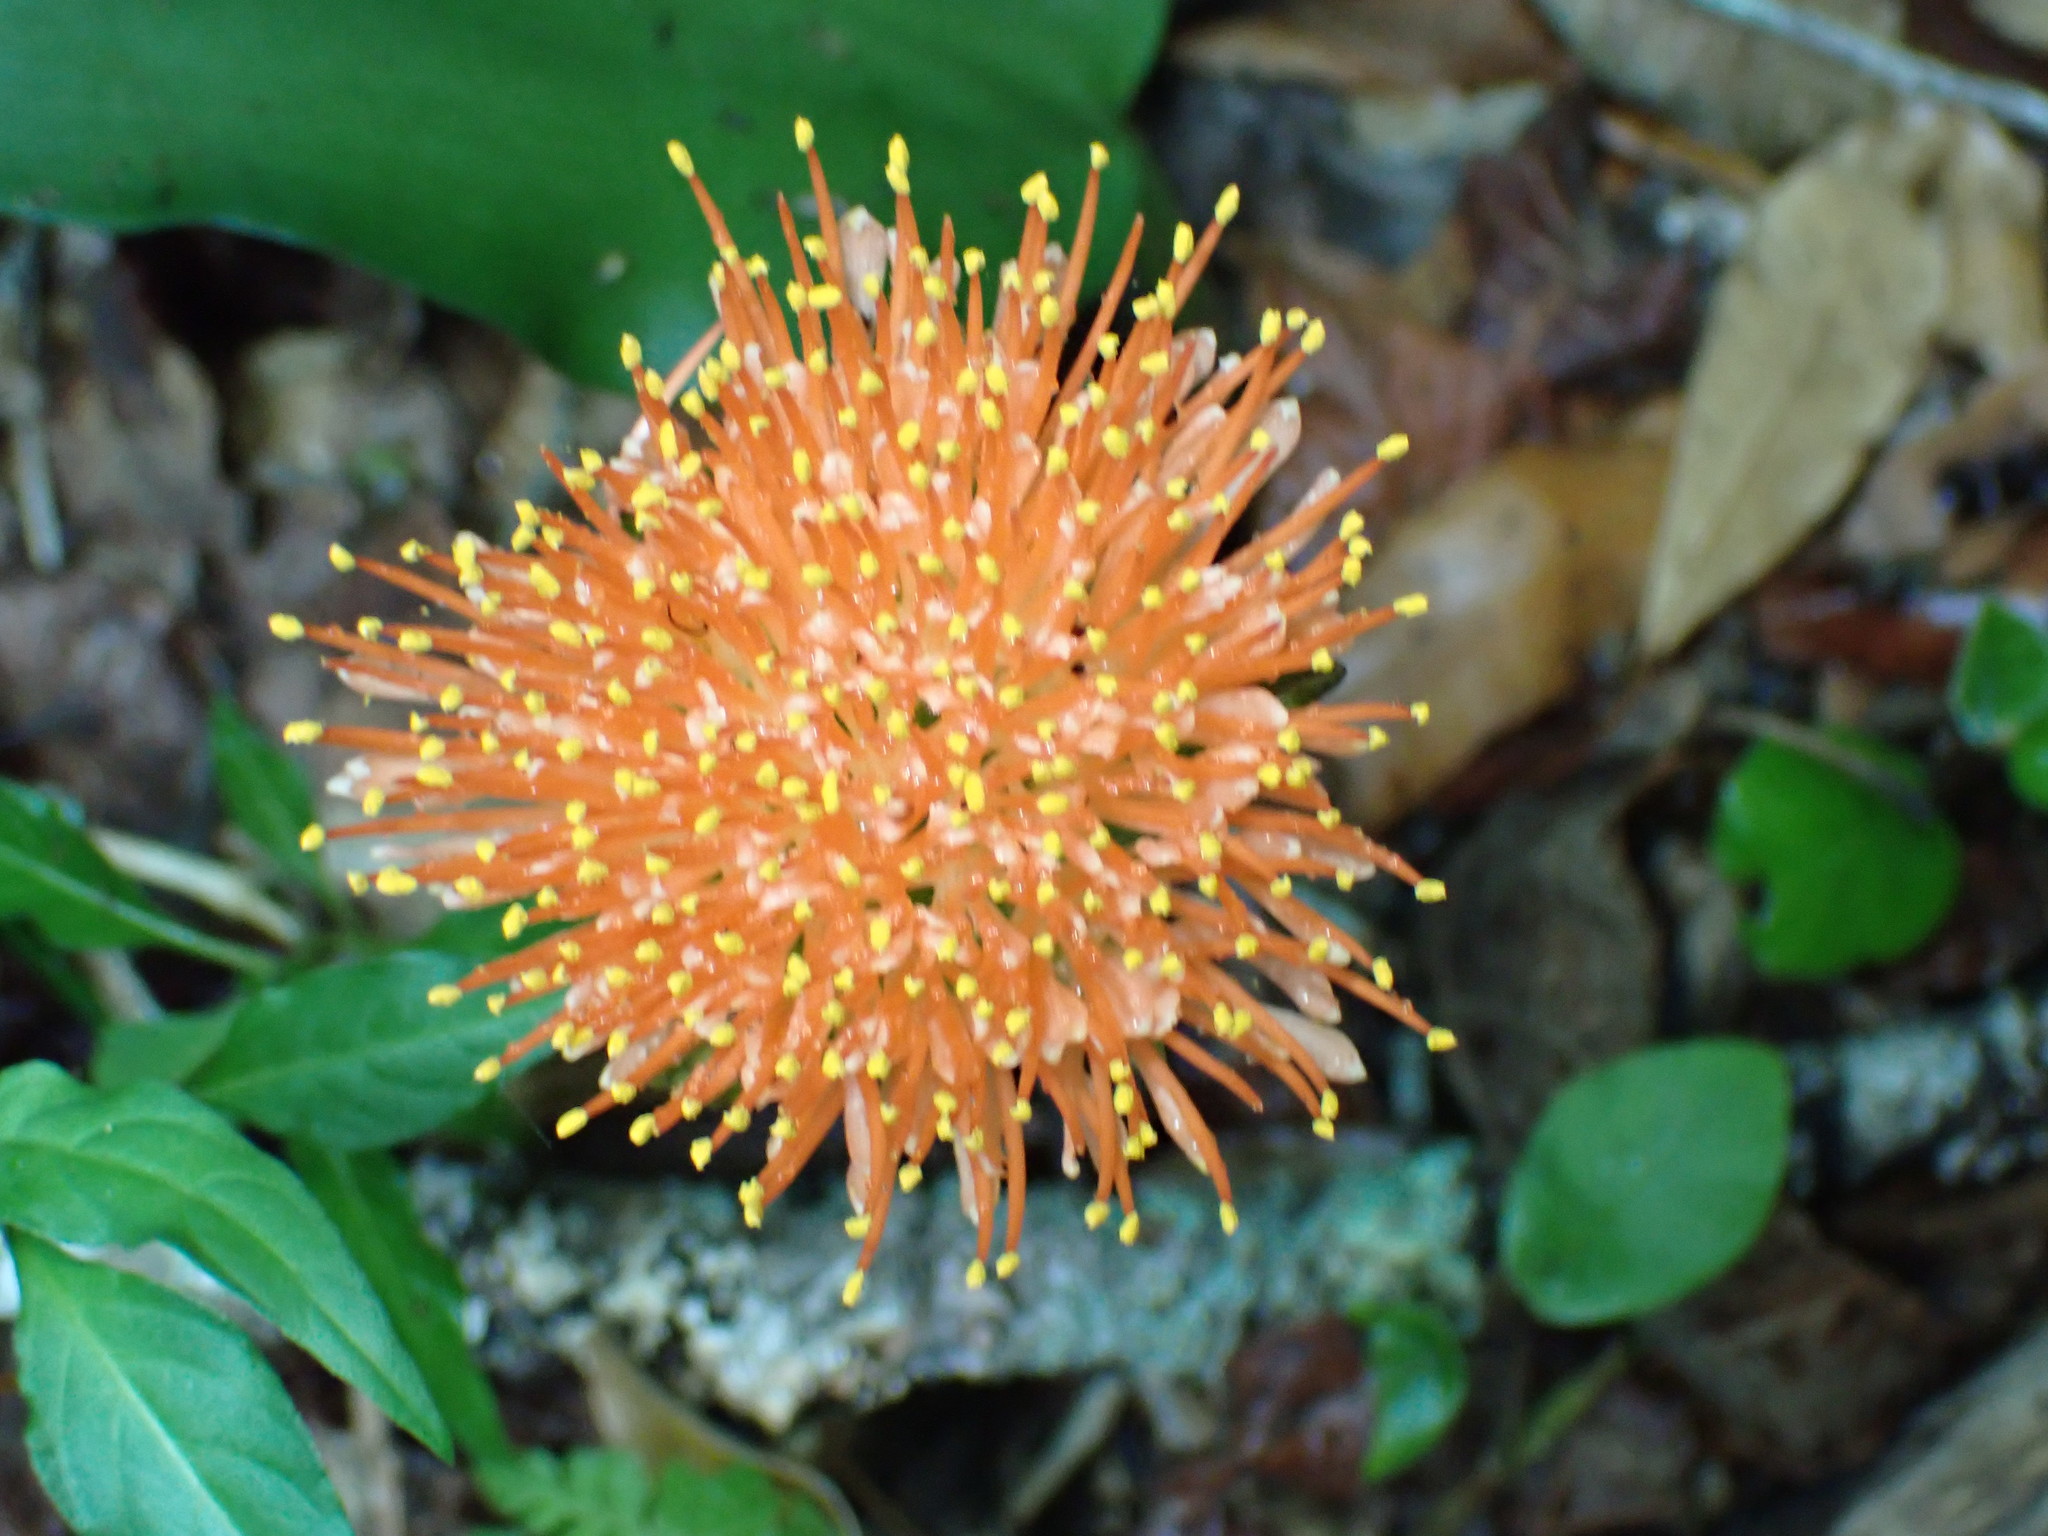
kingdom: Plantae
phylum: Tracheophyta
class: Liliopsida
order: Asparagales
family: Amaryllidaceae
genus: Scadoxus
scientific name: Scadoxus puniceus
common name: Royal-paintbrush
